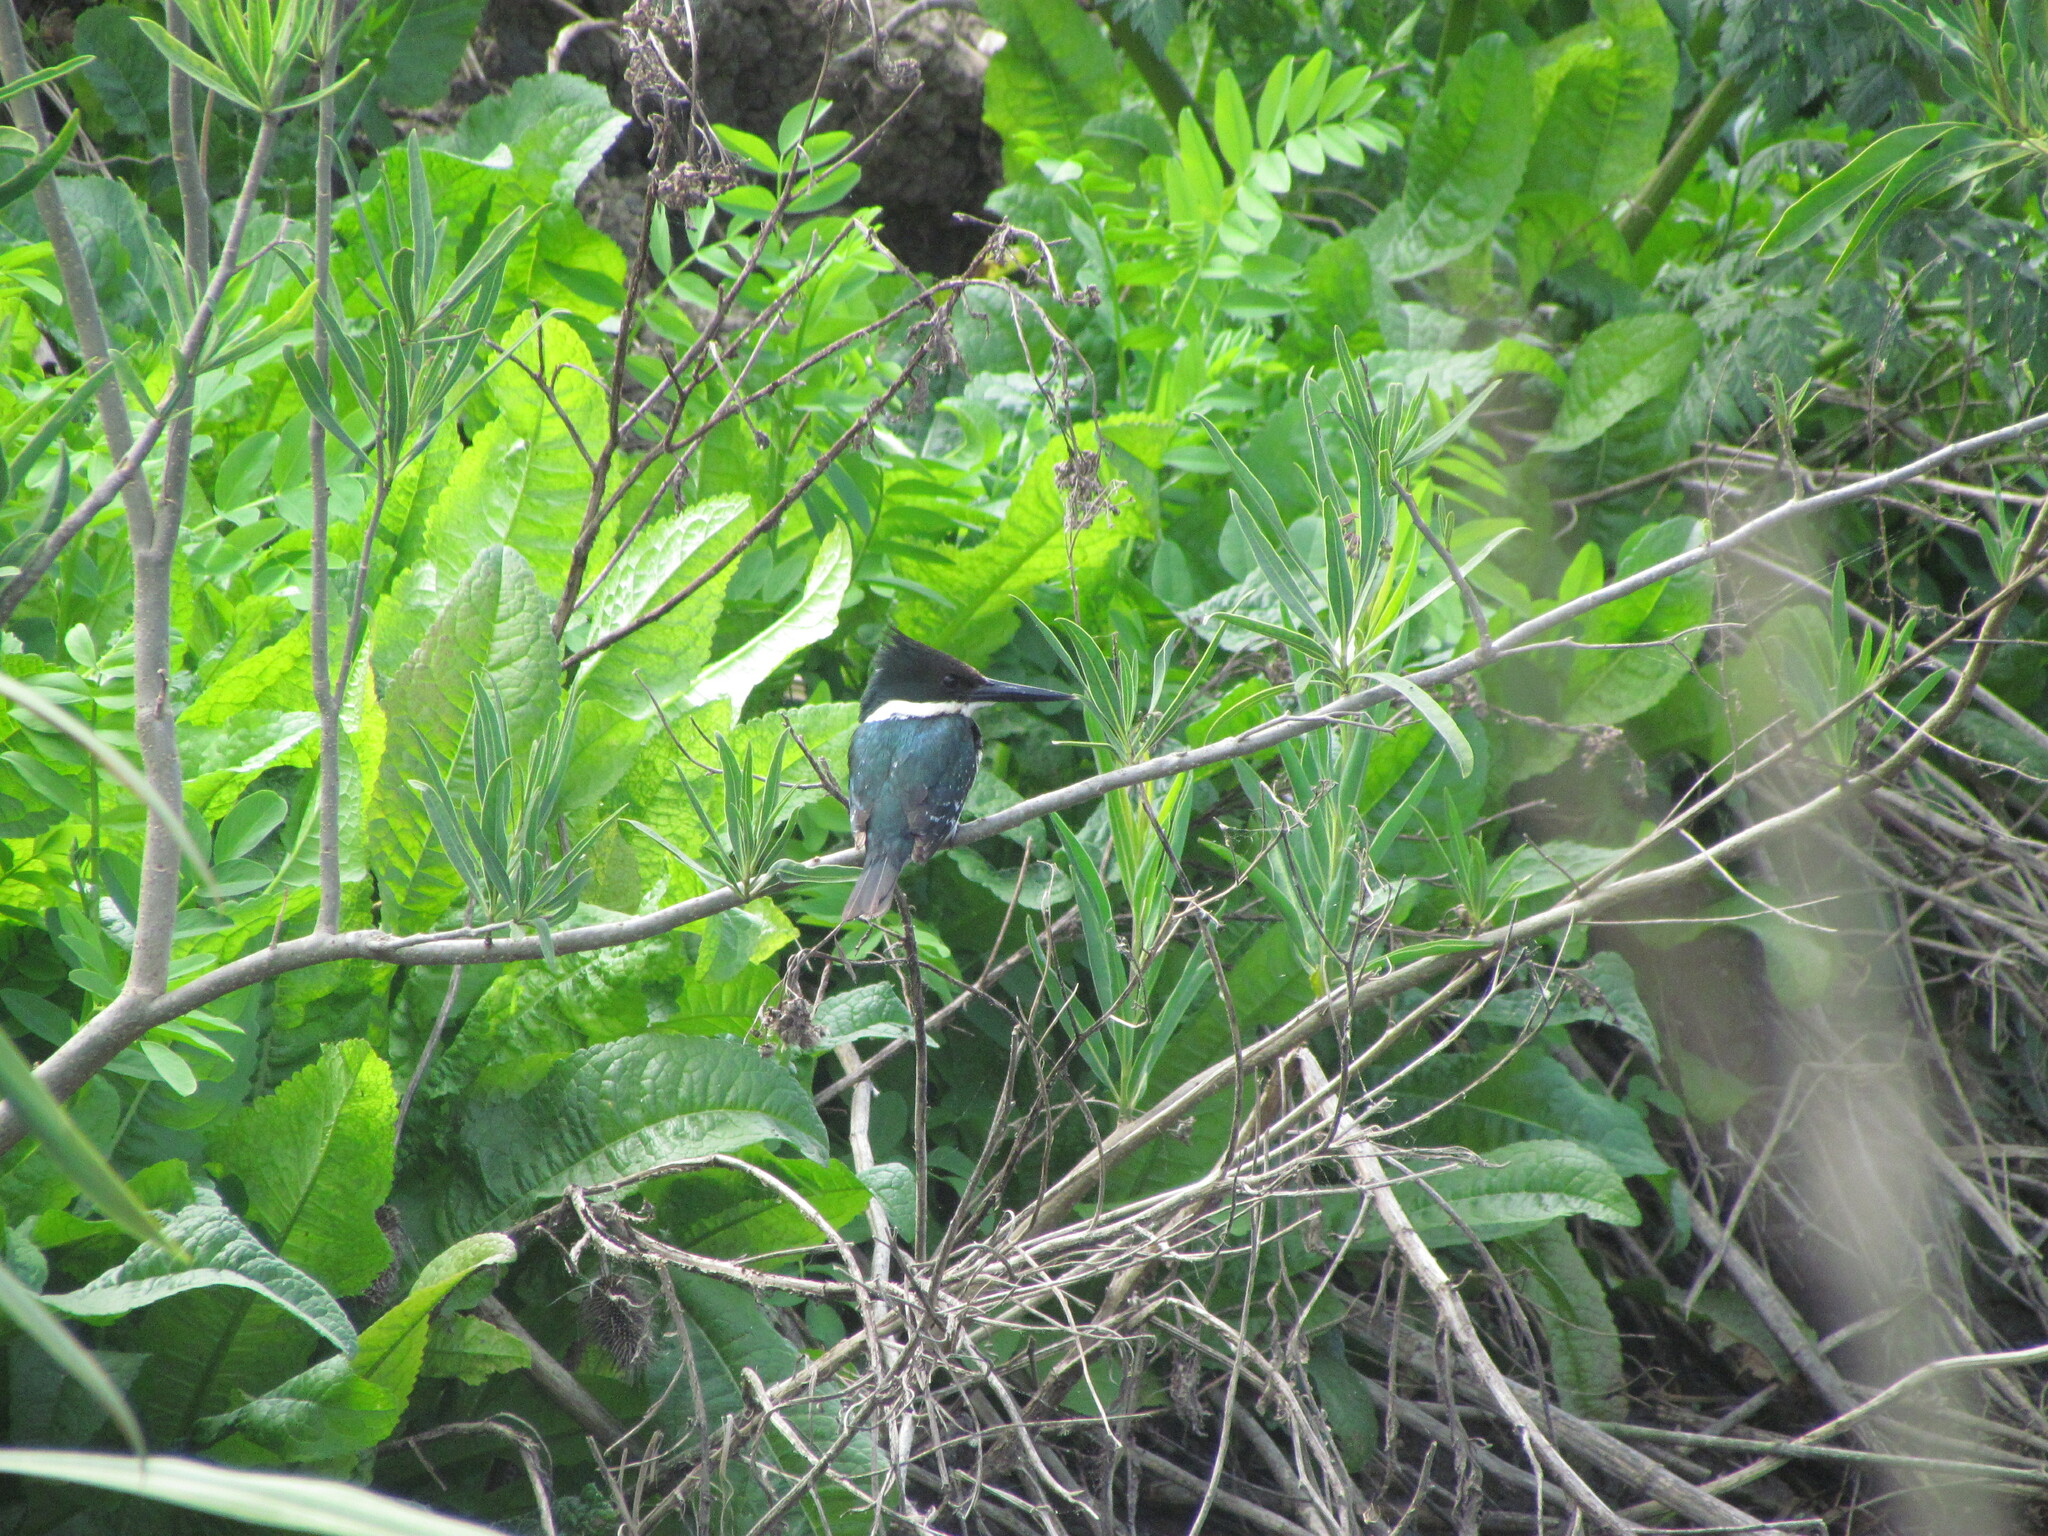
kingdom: Animalia
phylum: Chordata
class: Aves
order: Coraciiformes
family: Alcedinidae
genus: Chloroceryle
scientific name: Chloroceryle americana
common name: Green kingfisher
